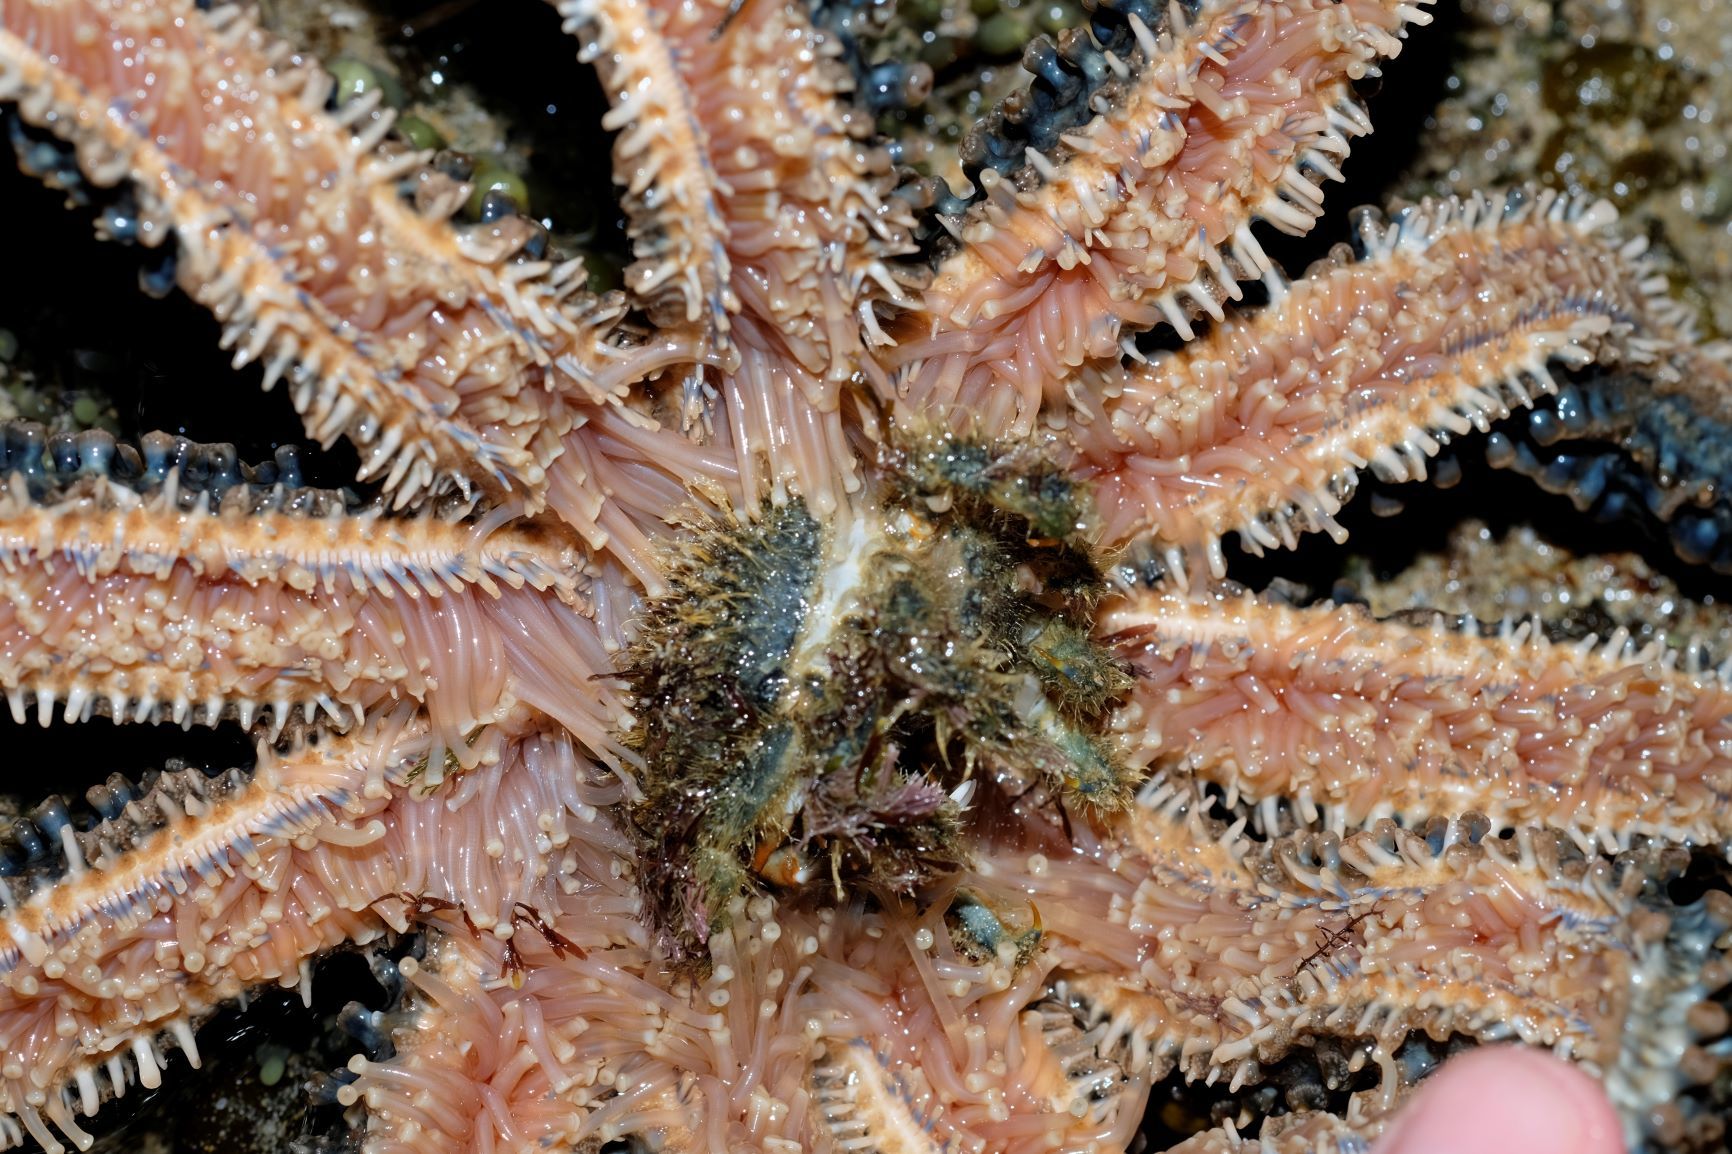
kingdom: Animalia
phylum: Echinodermata
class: Asteroidea
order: Forcipulatida
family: Asteriidae
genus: Coscinasterias
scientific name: Coscinasterias muricata
